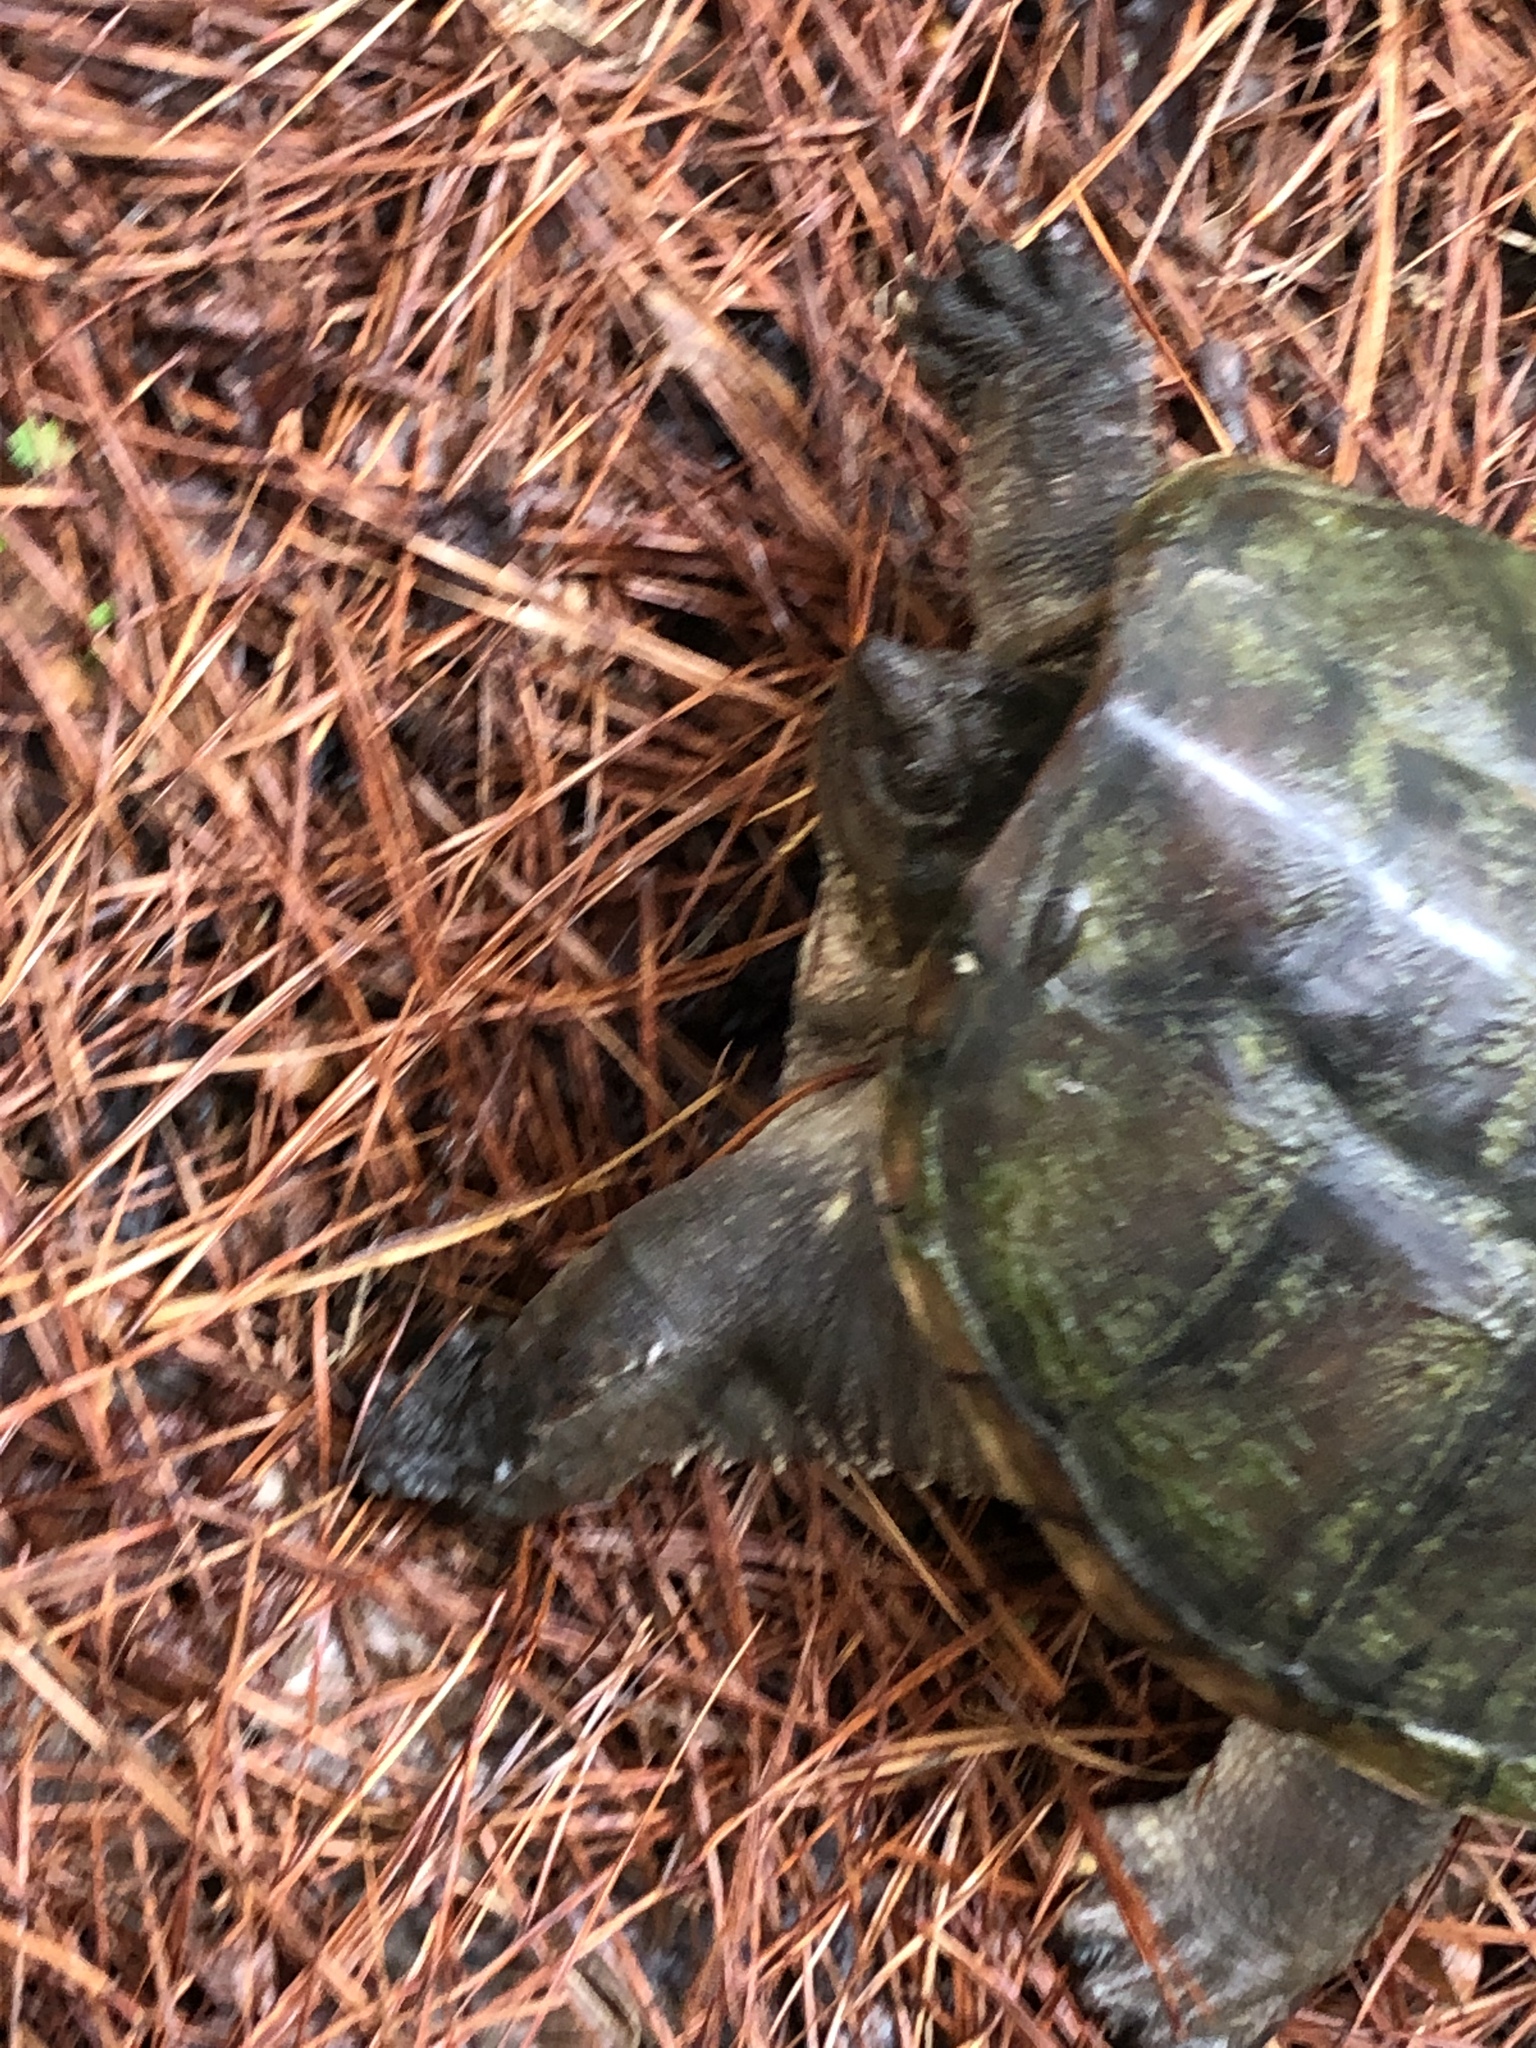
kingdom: Animalia
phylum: Chordata
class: Testudines
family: Chelydridae
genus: Chelydra
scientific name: Chelydra serpentina
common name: Common snapping turtle
